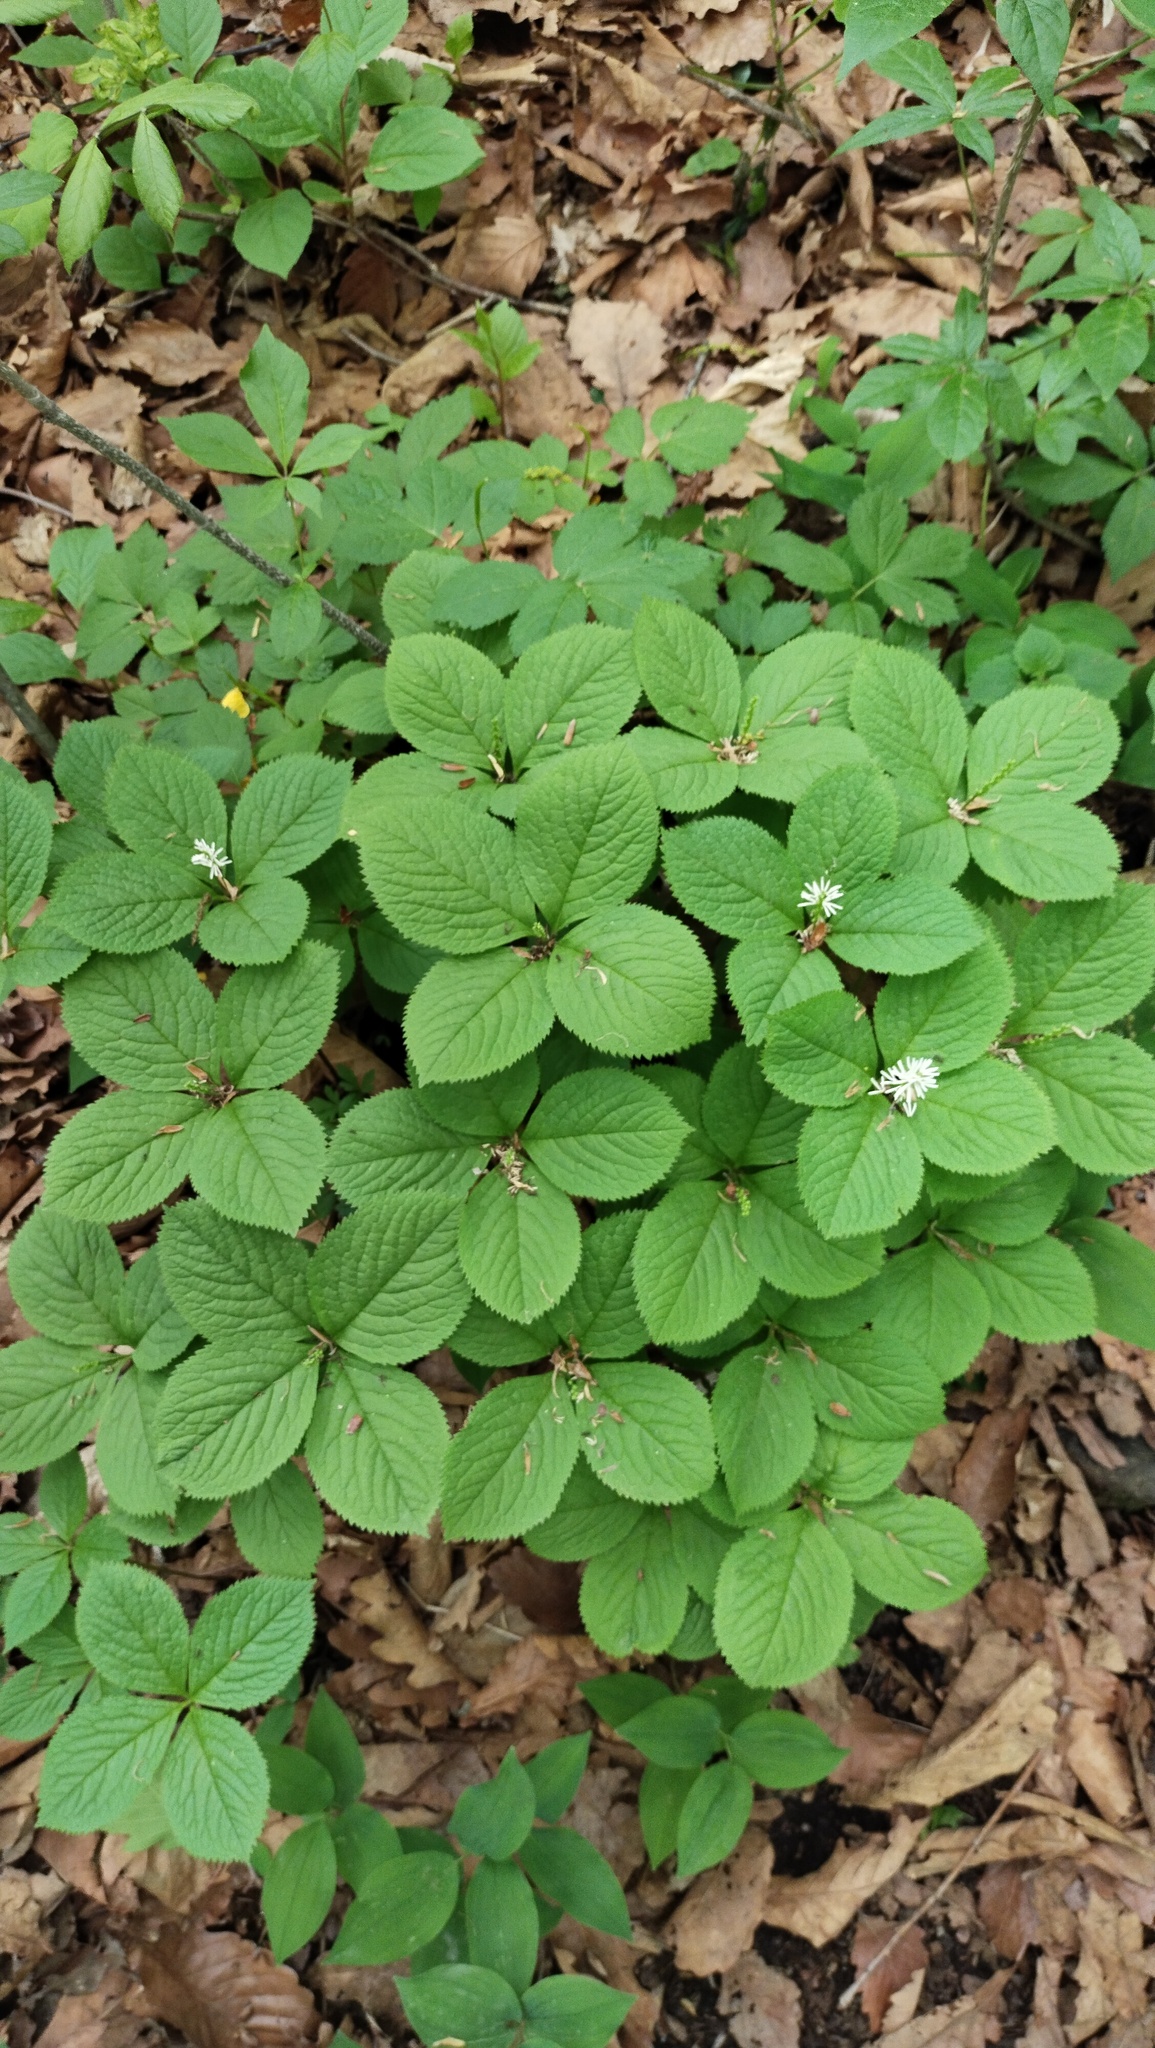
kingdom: Plantae
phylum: Tracheophyta
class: Magnoliopsida
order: Chloranthales
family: Chloranthaceae
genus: Chloranthus
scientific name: Chloranthus quadrifolius
